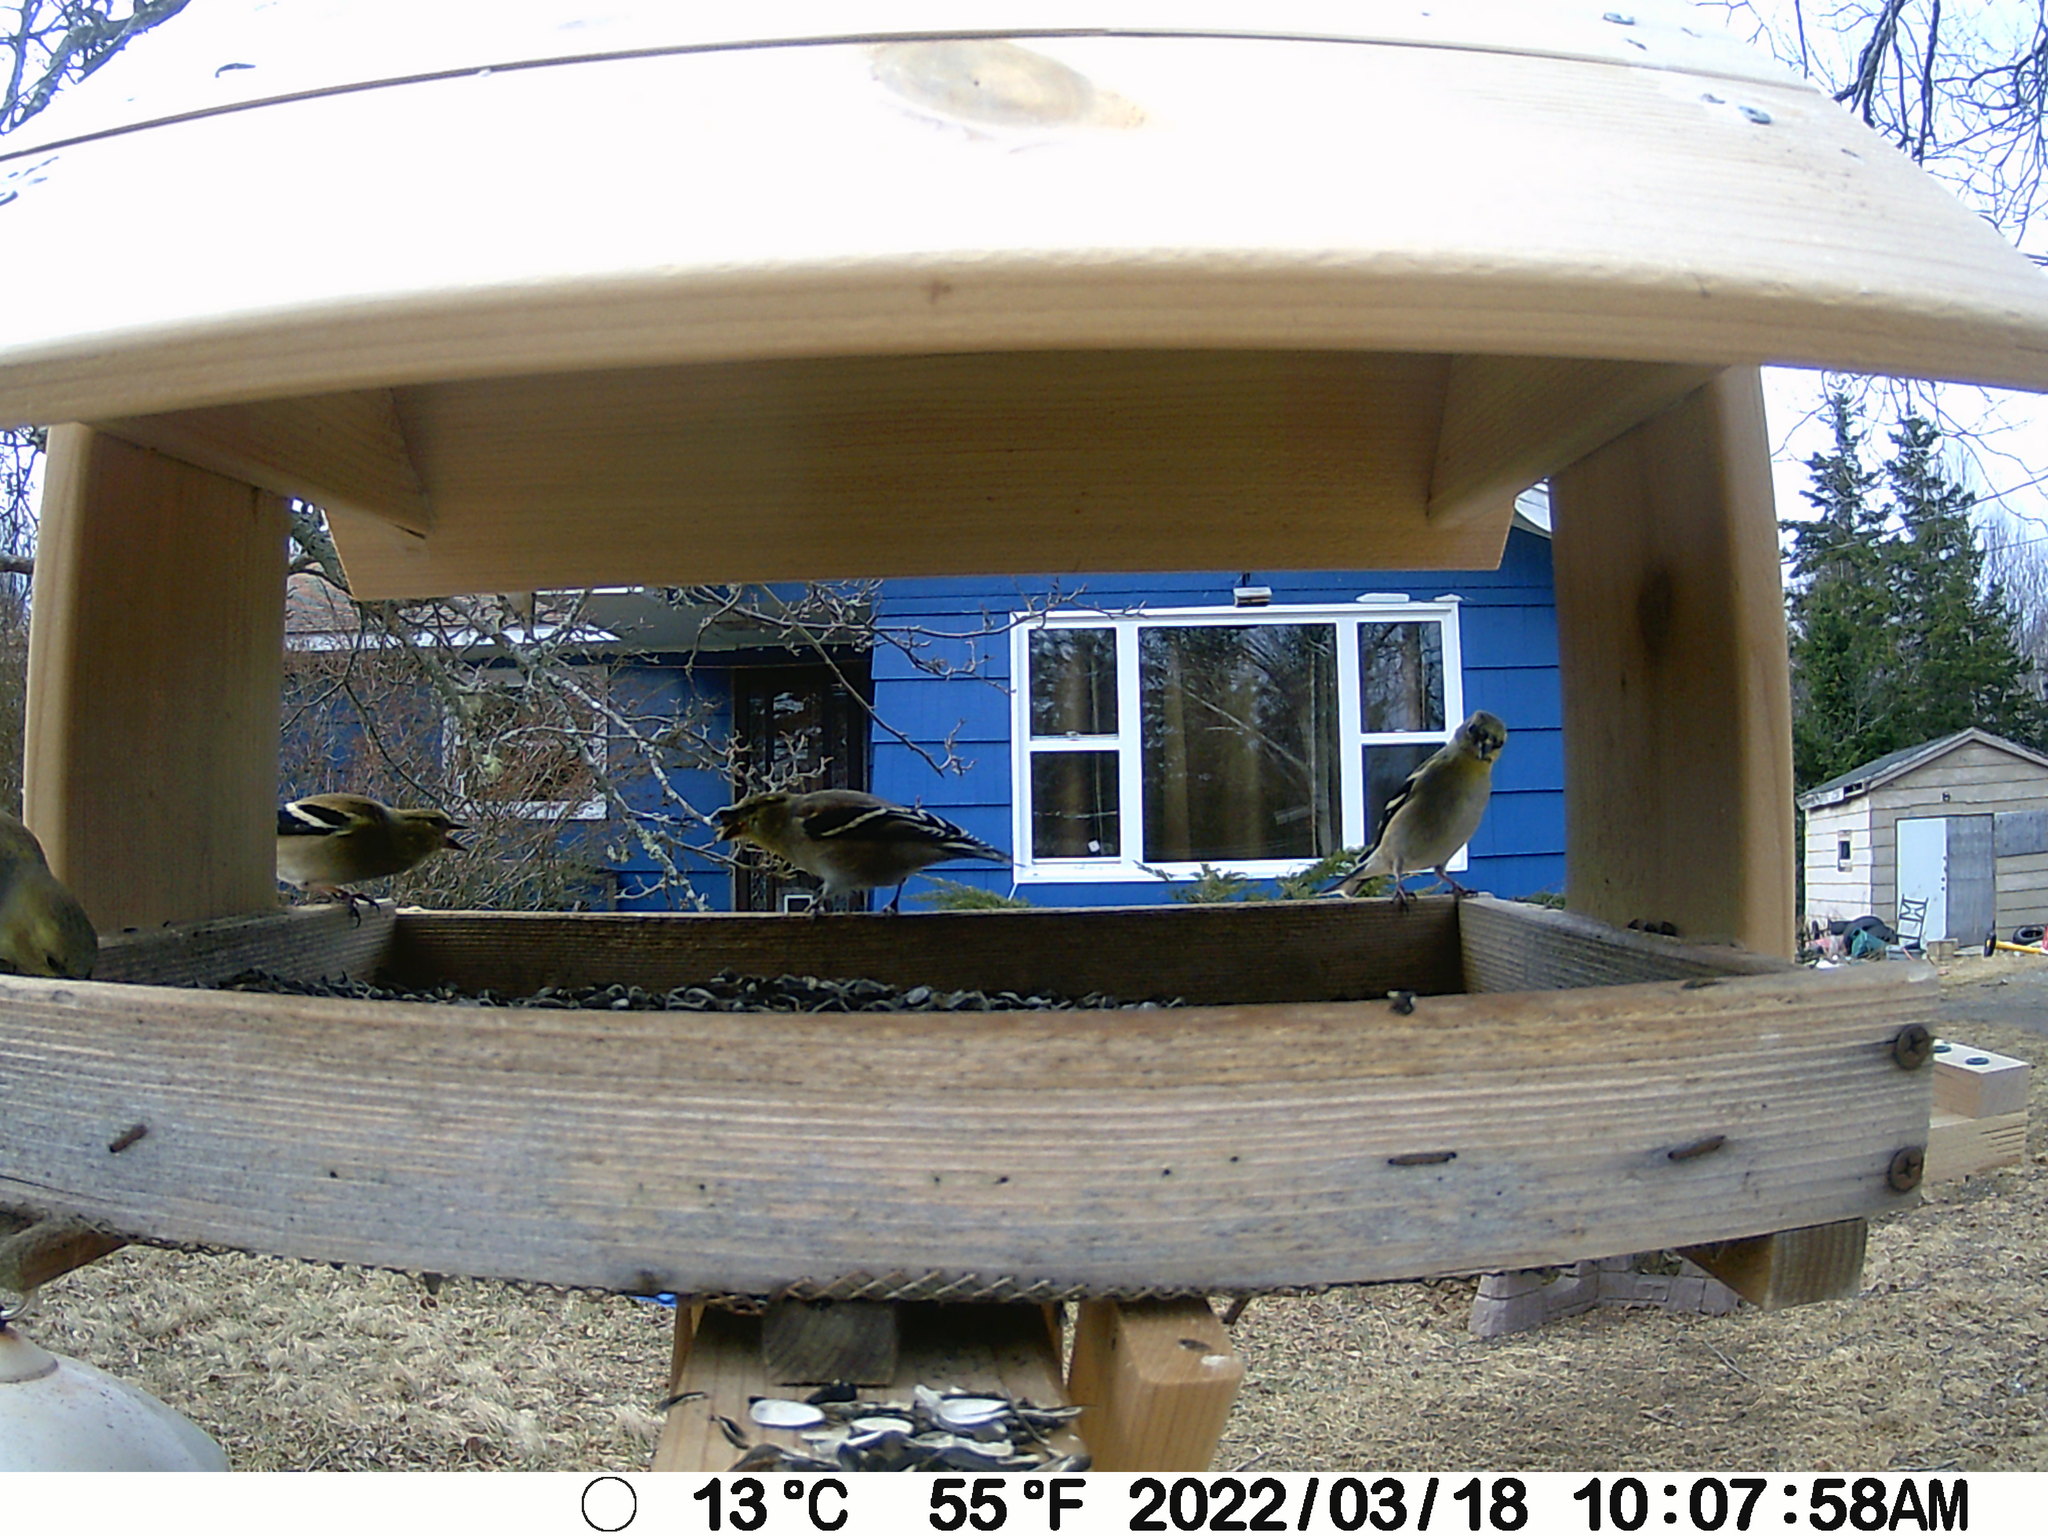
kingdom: Animalia
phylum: Chordata
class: Aves
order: Passeriformes
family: Fringillidae
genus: Spinus
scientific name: Spinus tristis
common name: American goldfinch
